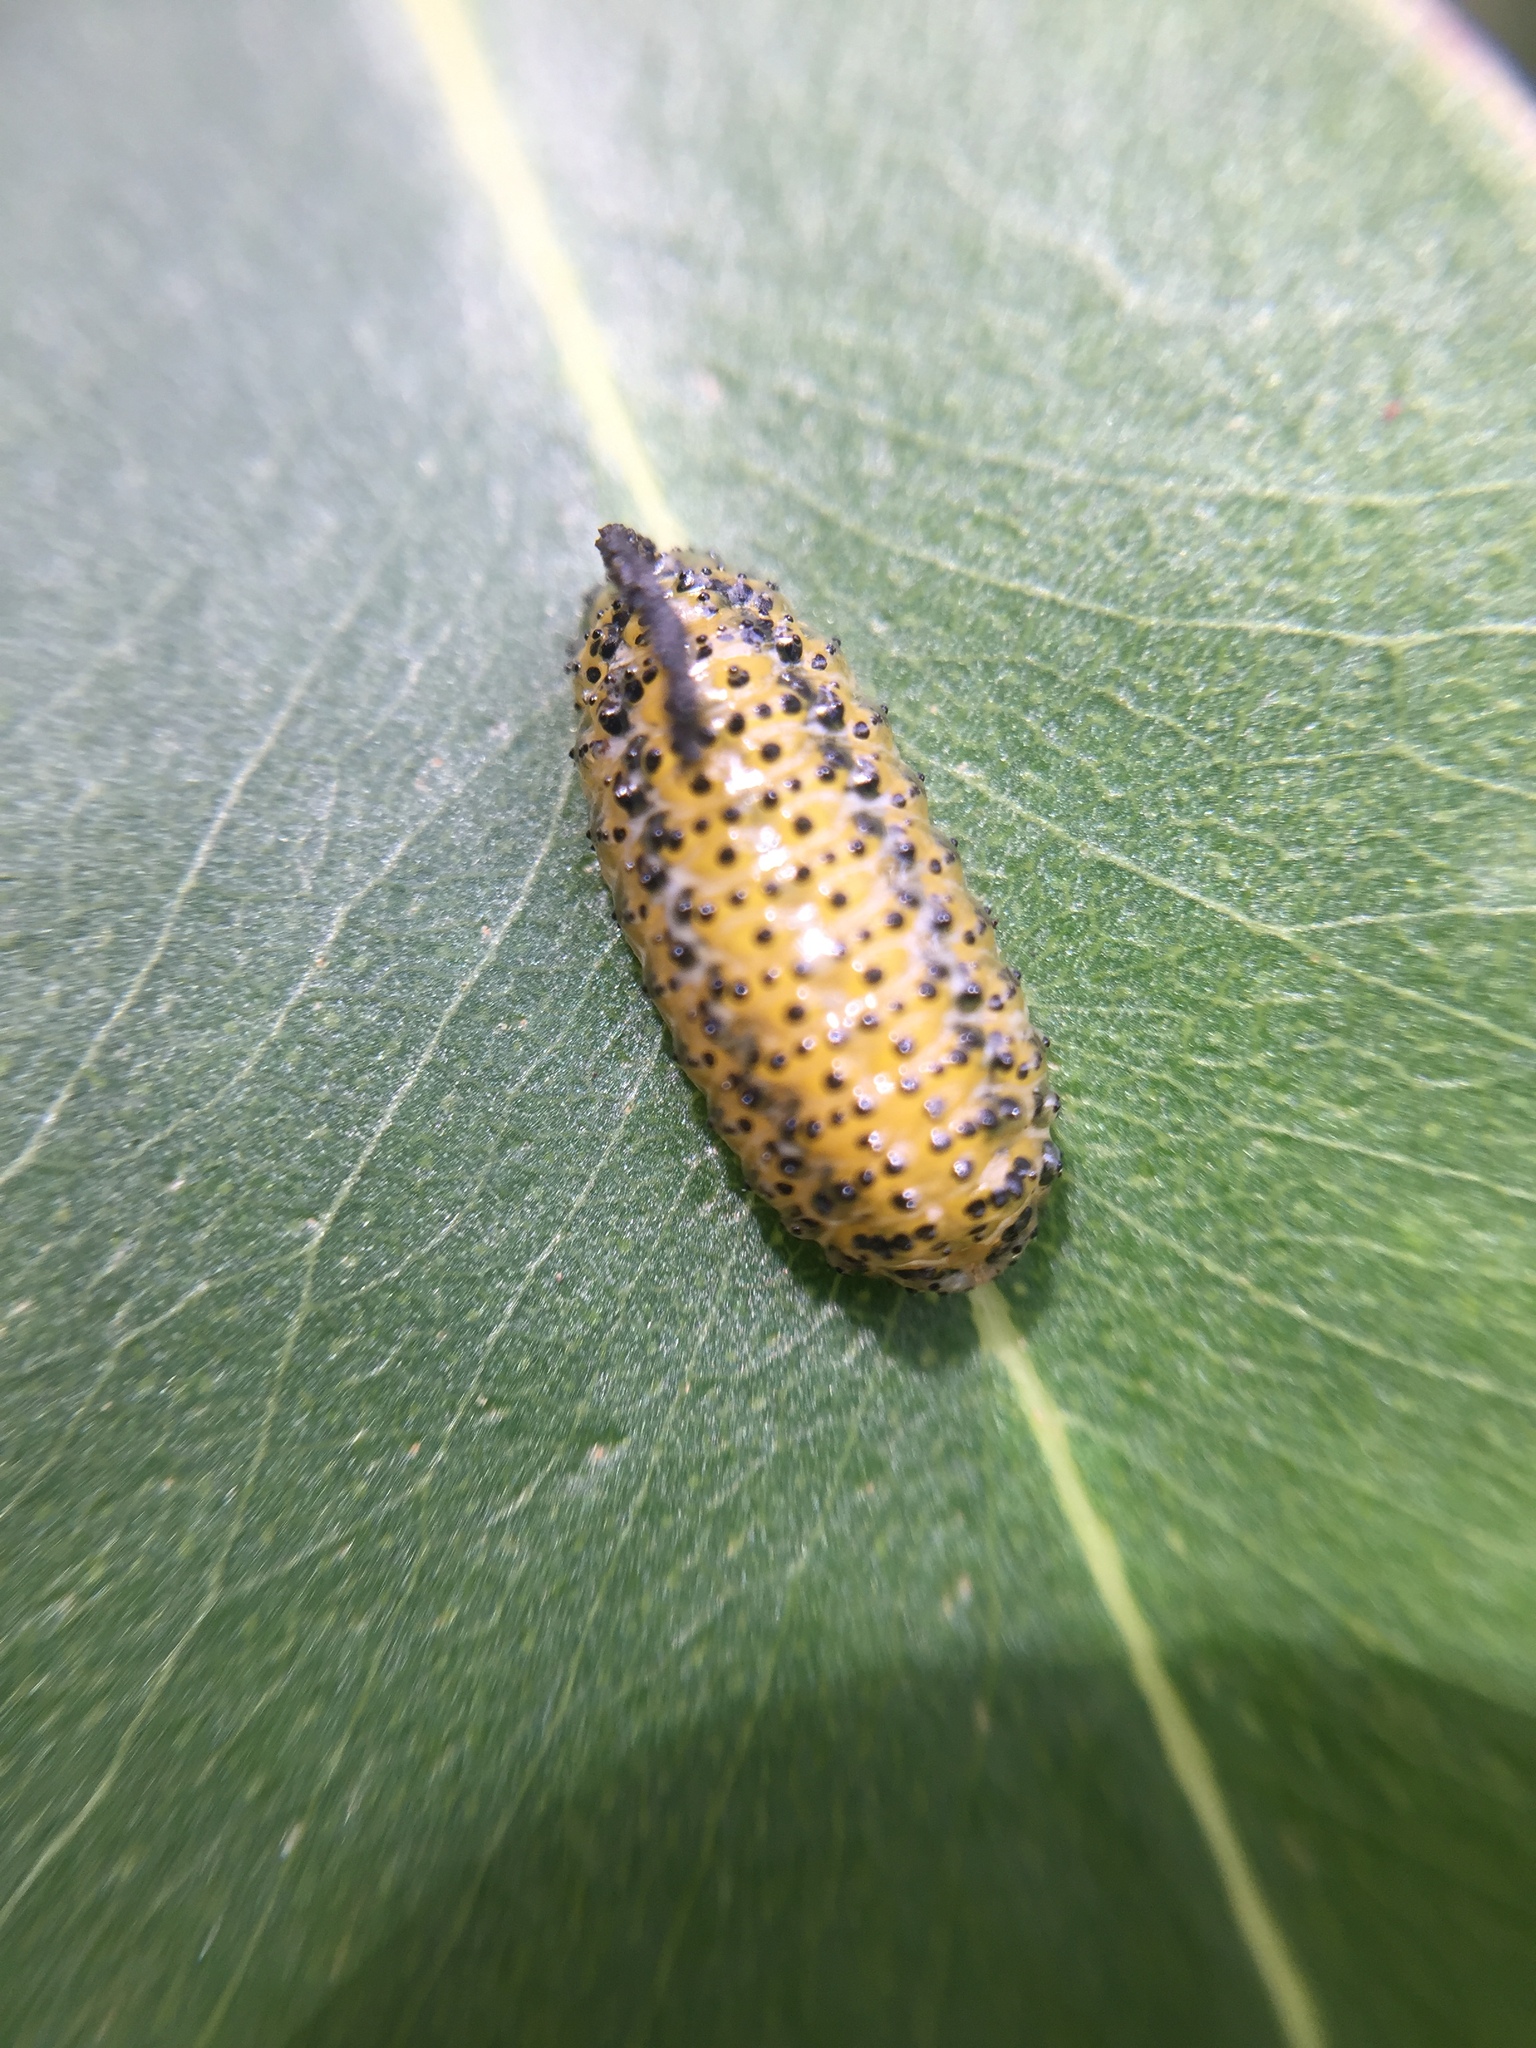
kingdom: Animalia
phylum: Arthropoda
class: Insecta
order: Coleoptera
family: Curculionidae
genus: Gonipterus
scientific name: Gonipterus platensis
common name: Eucalyptus snout beetle
